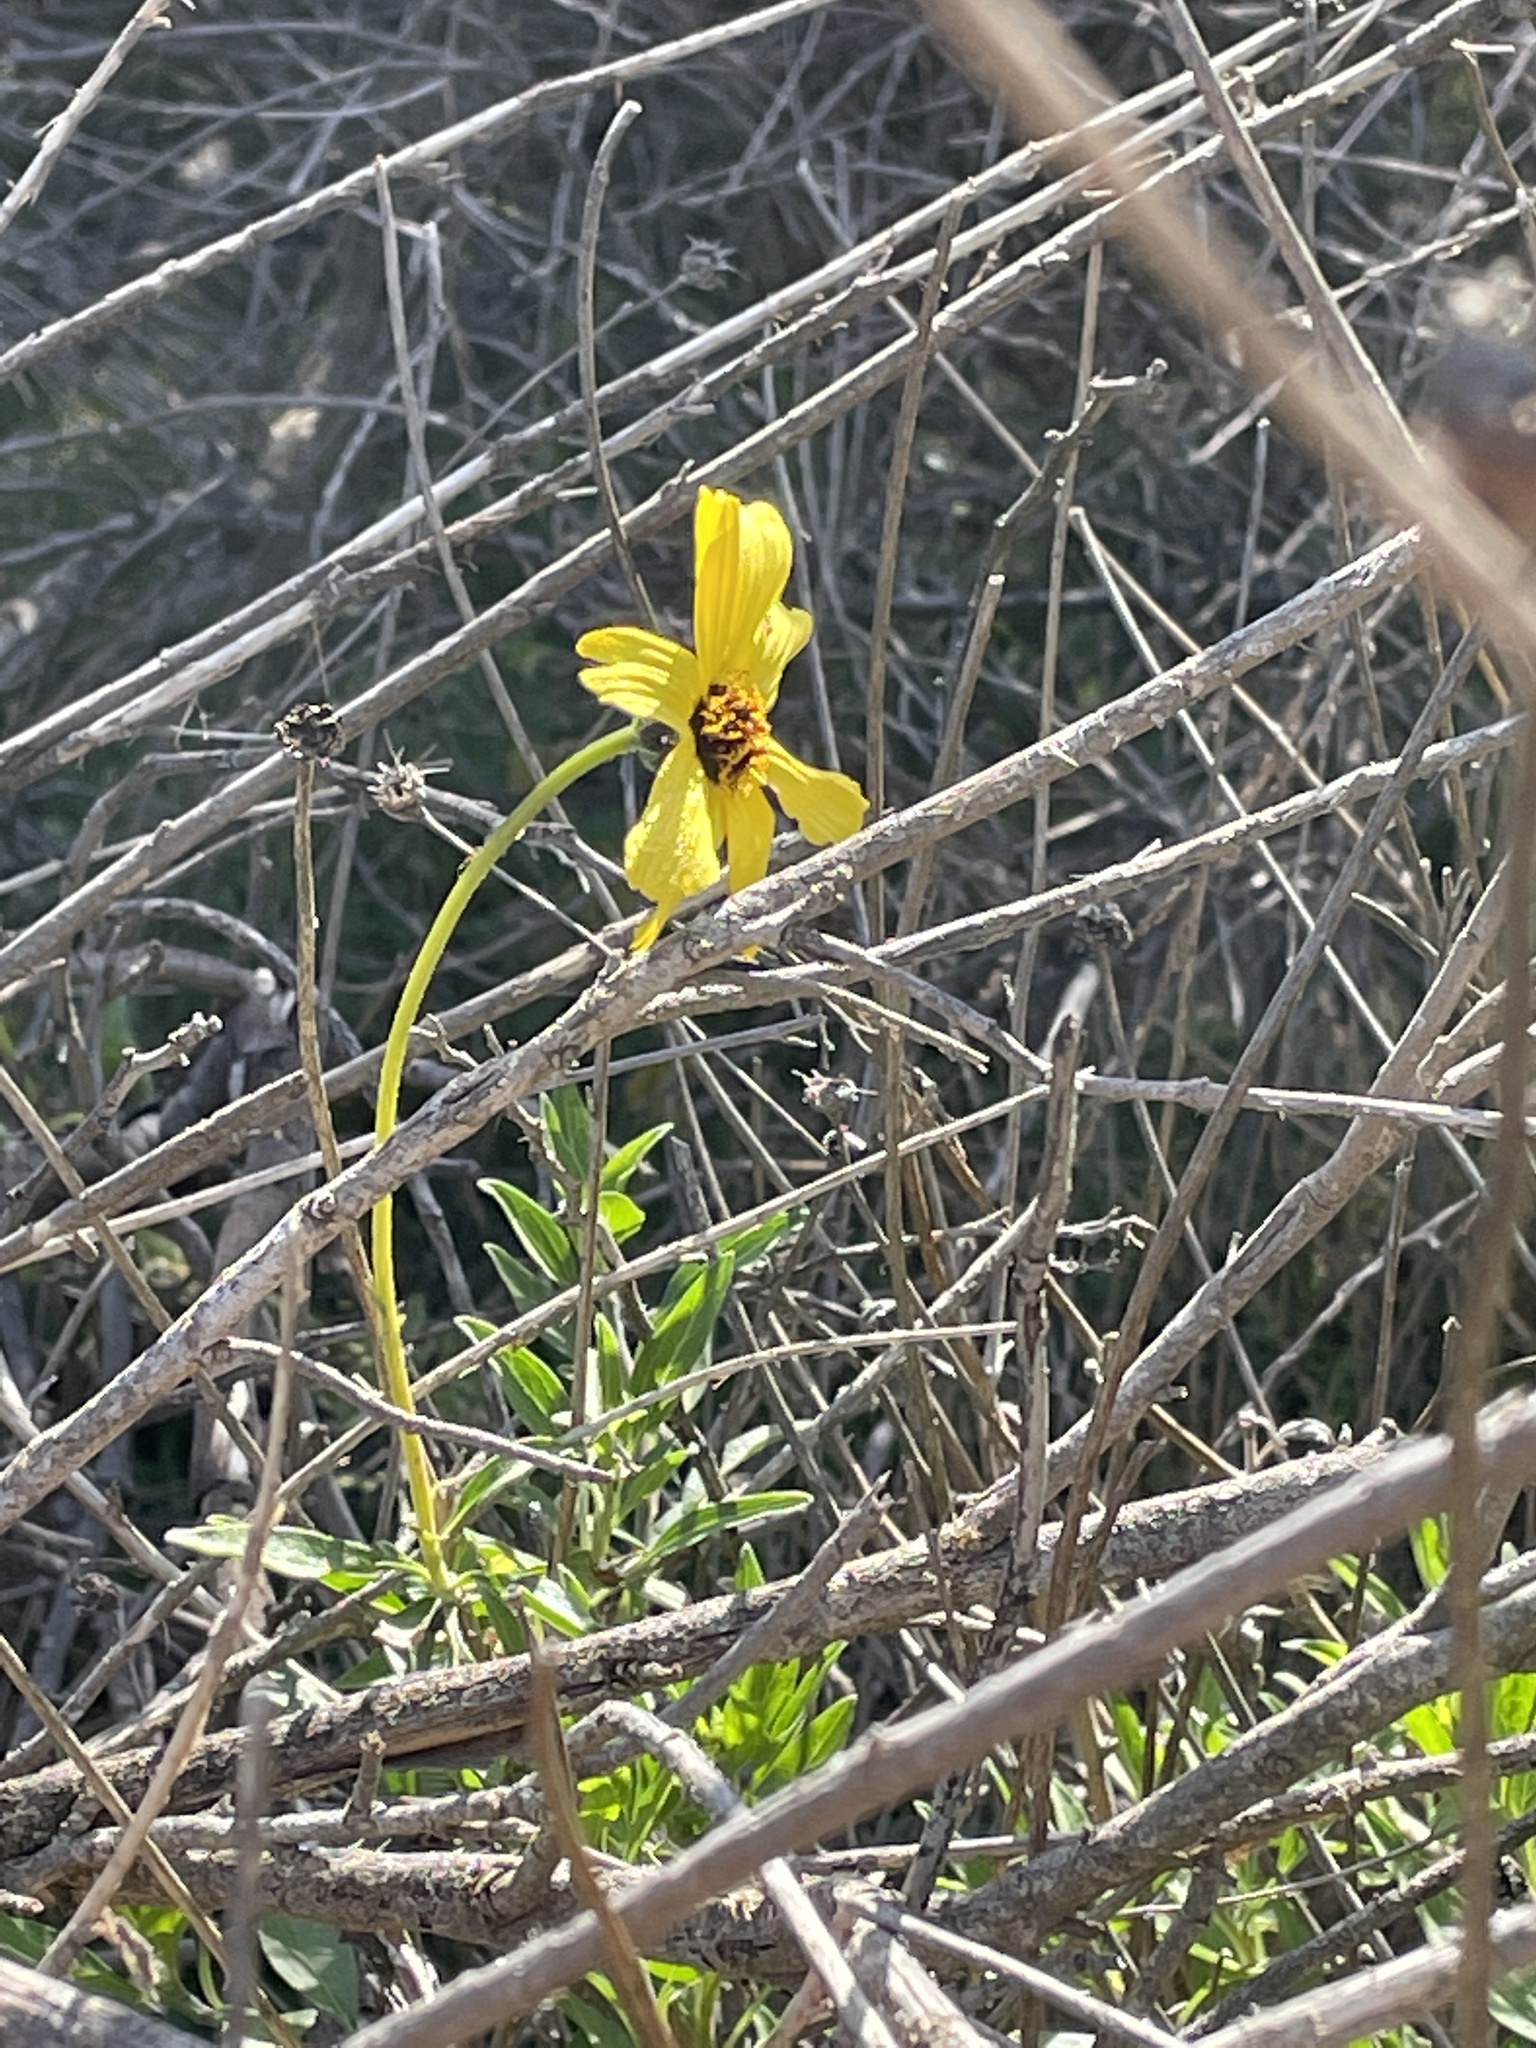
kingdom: Plantae
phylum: Tracheophyta
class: Magnoliopsida
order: Asterales
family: Asteraceae
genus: Encelia
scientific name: Encelia californica
